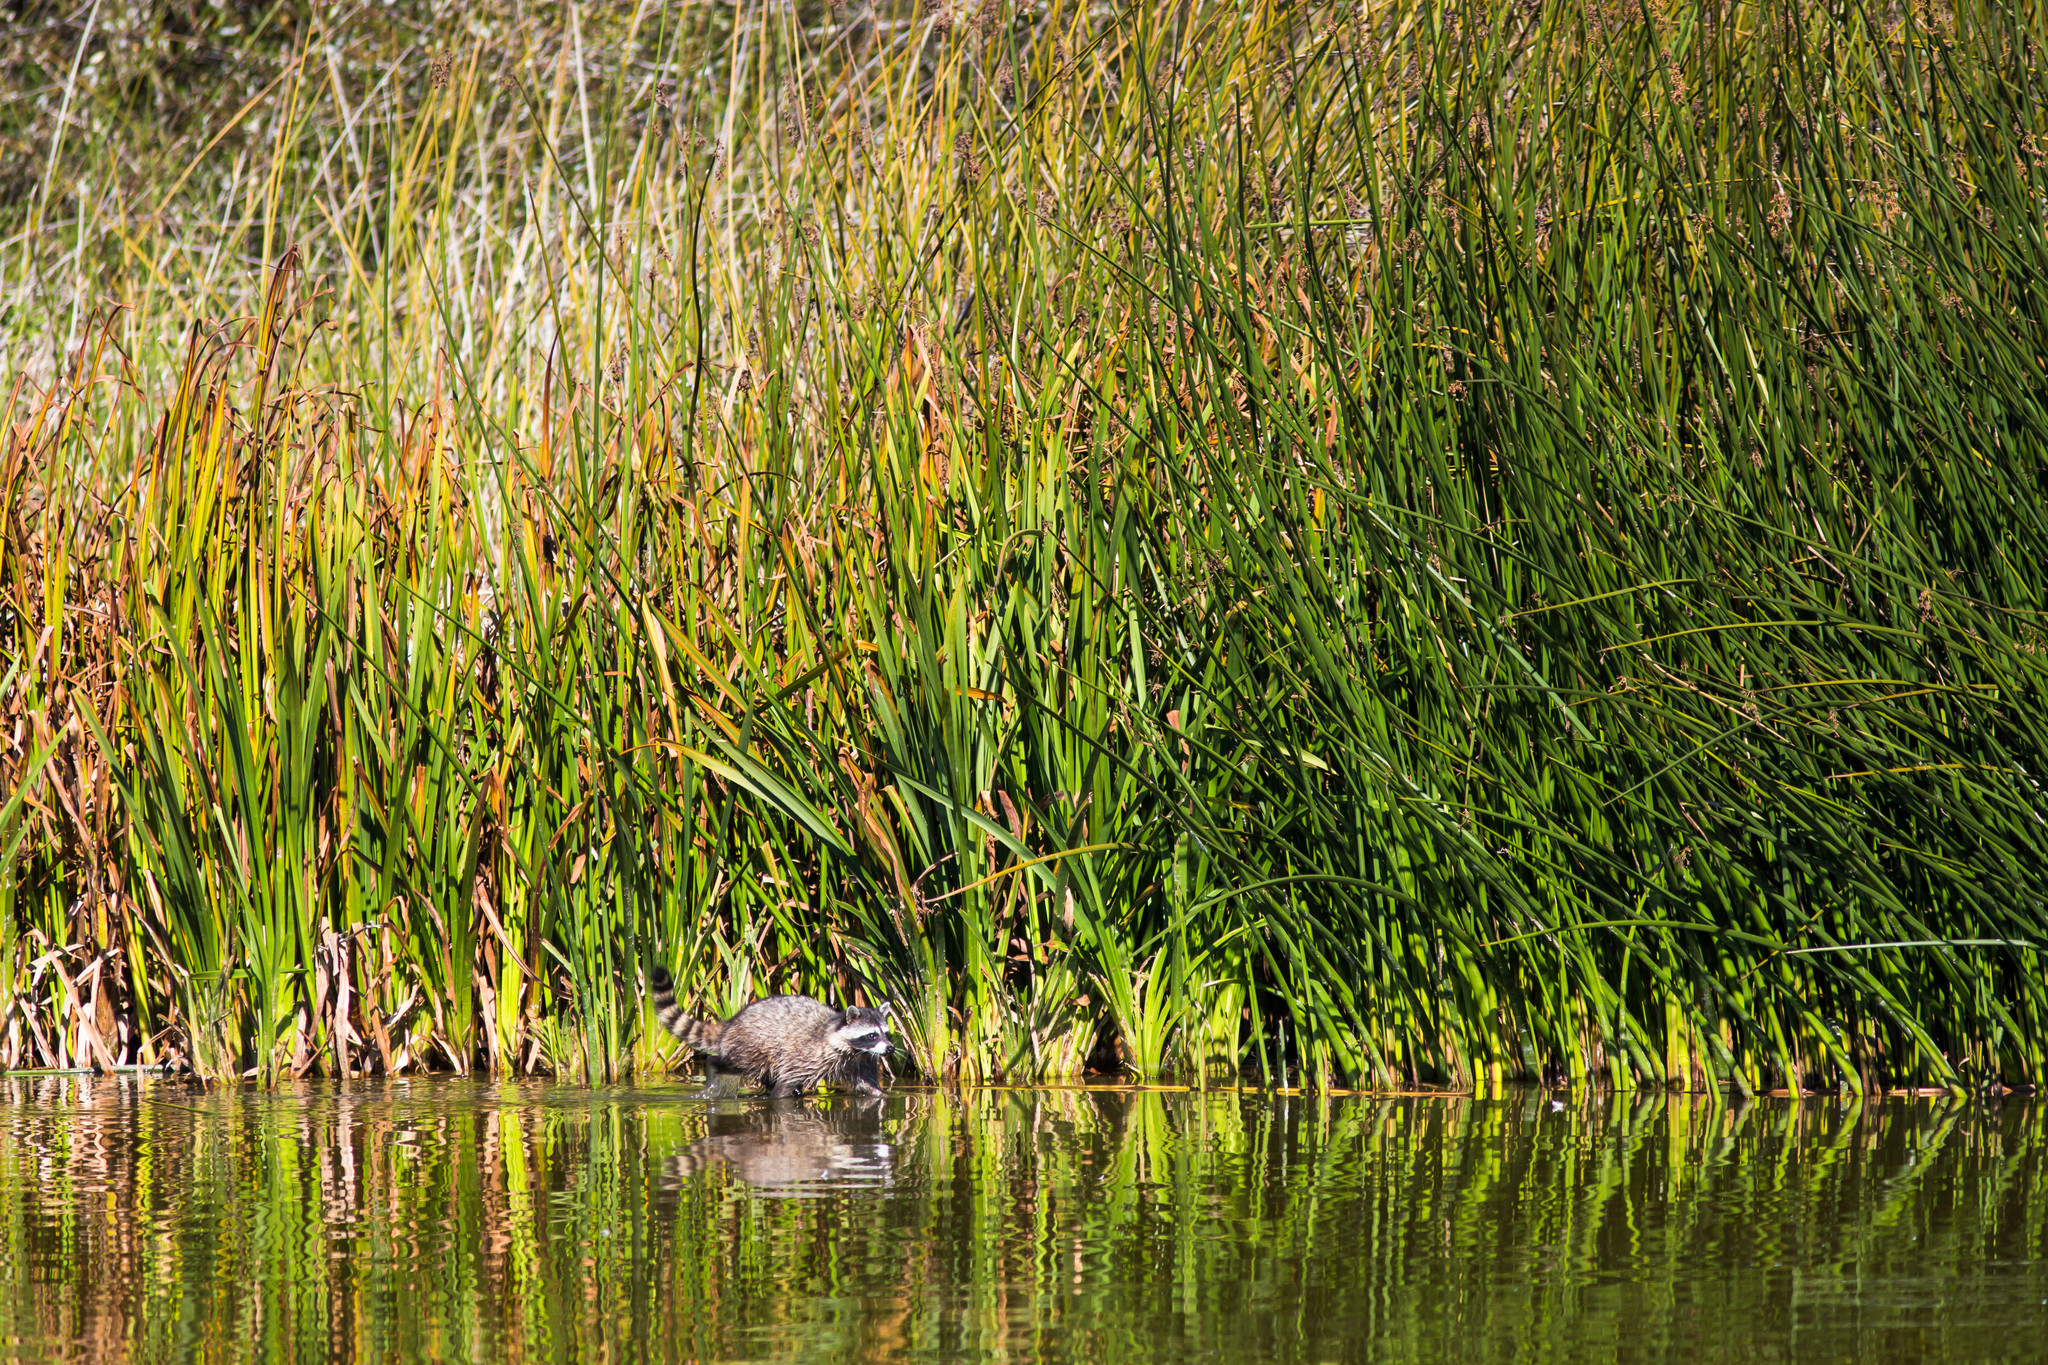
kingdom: Animalia
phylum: Chordata
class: Mammalia
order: Carnivora
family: Procyonidae
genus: Procyon
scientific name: Procyon lotor
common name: Raccoon
